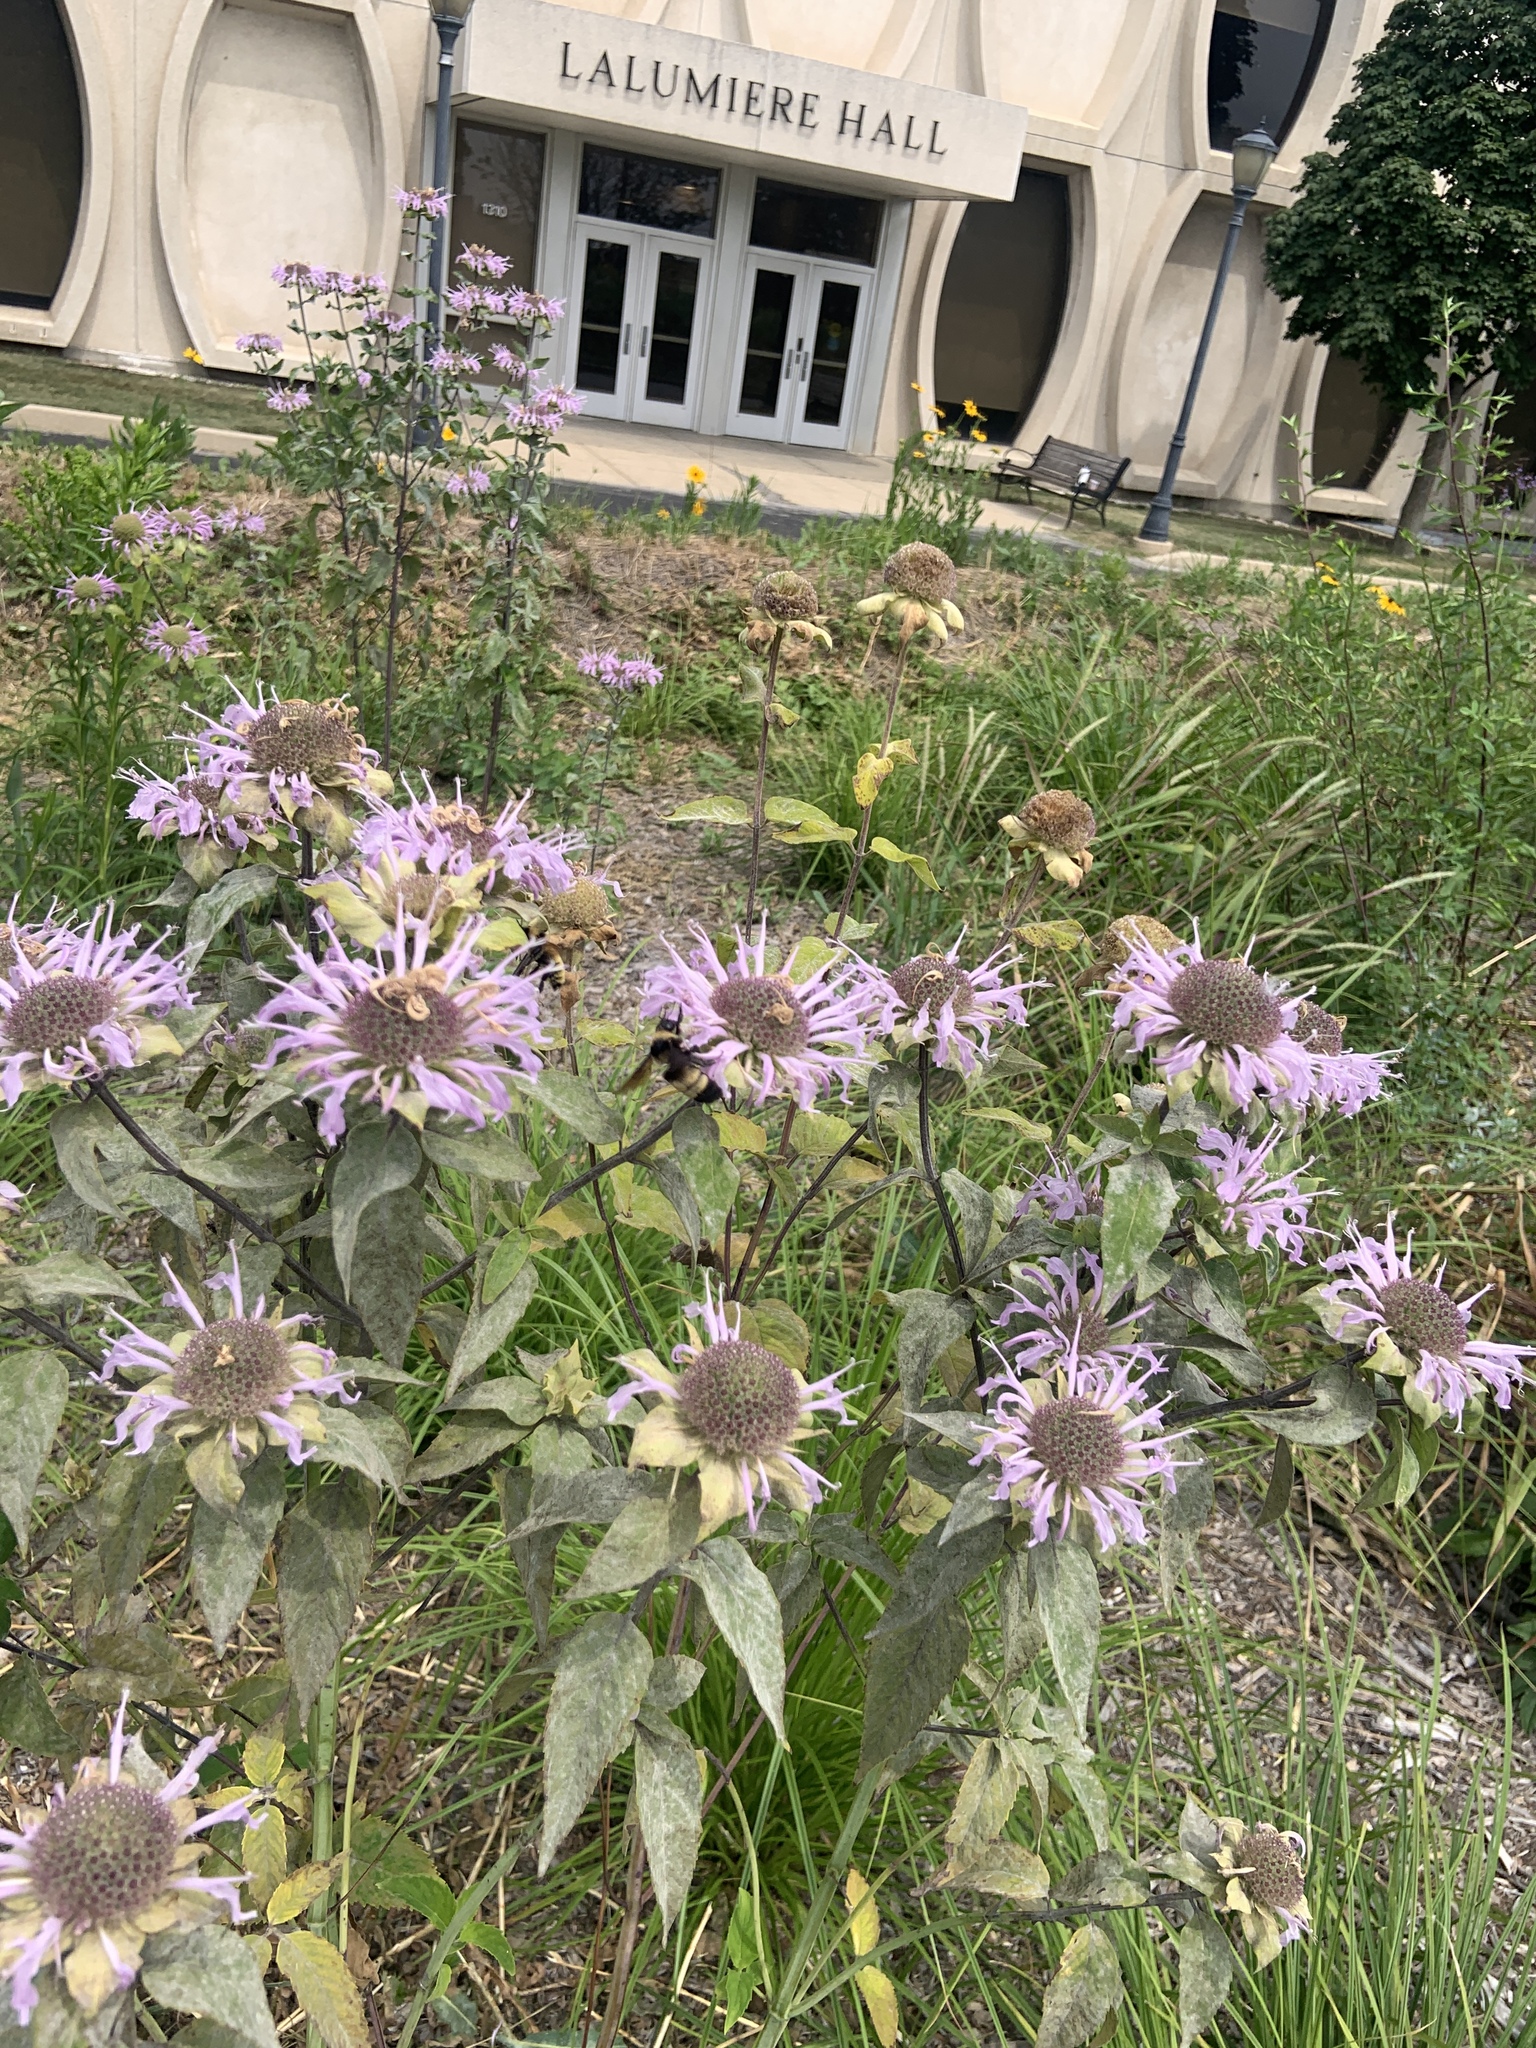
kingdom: Animalia
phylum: Arthropoda
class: Insecta
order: Hymenoptera
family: Apidae
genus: Bombus
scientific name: Bombus auricomus
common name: Black and gold bumble bee
